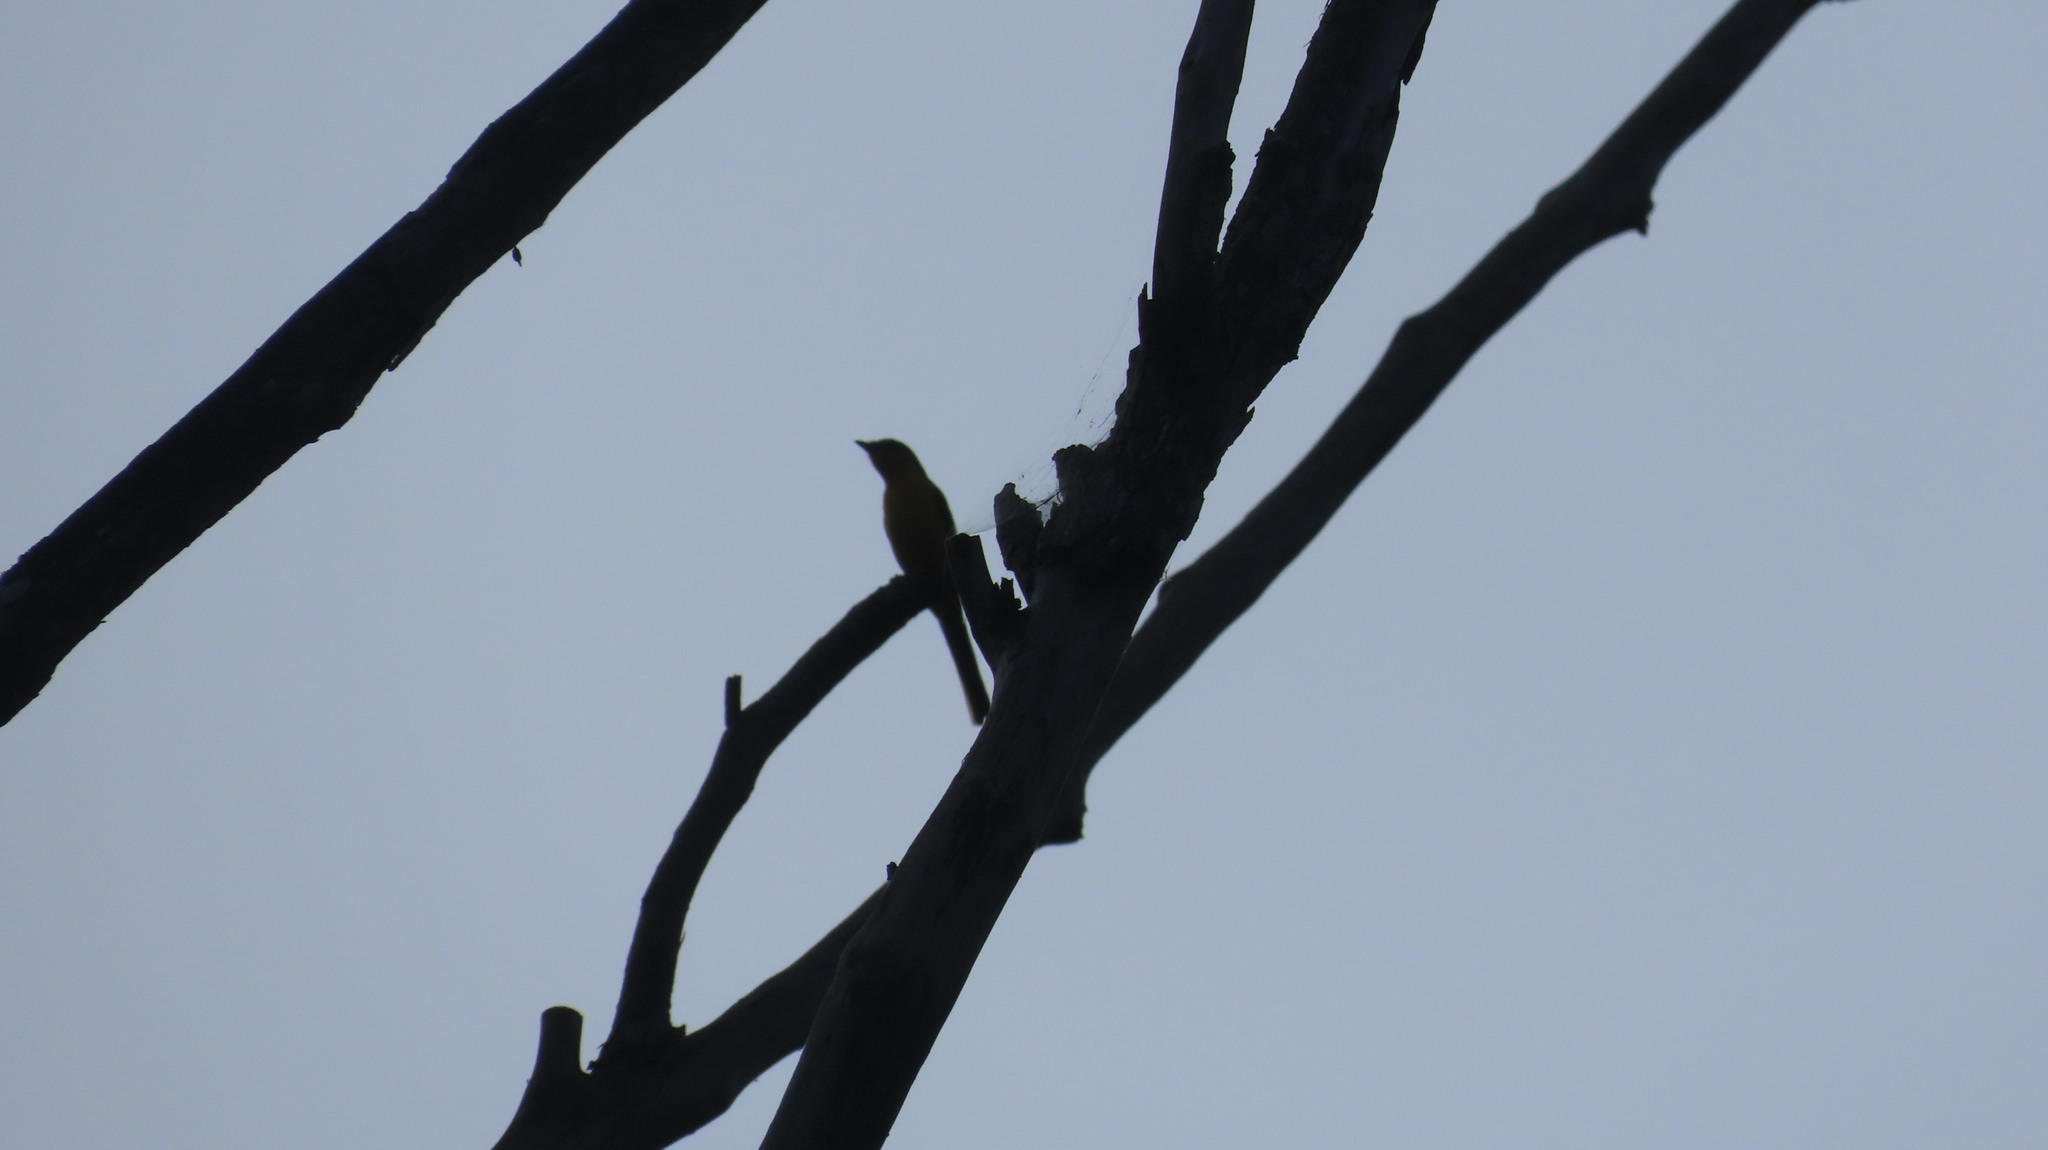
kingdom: Animalia
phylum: Chordata
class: Aves
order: Passeriformes
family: Campephagidae
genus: Pericrocotus
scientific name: Pericrocotus flammeus
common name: Orange minivet
